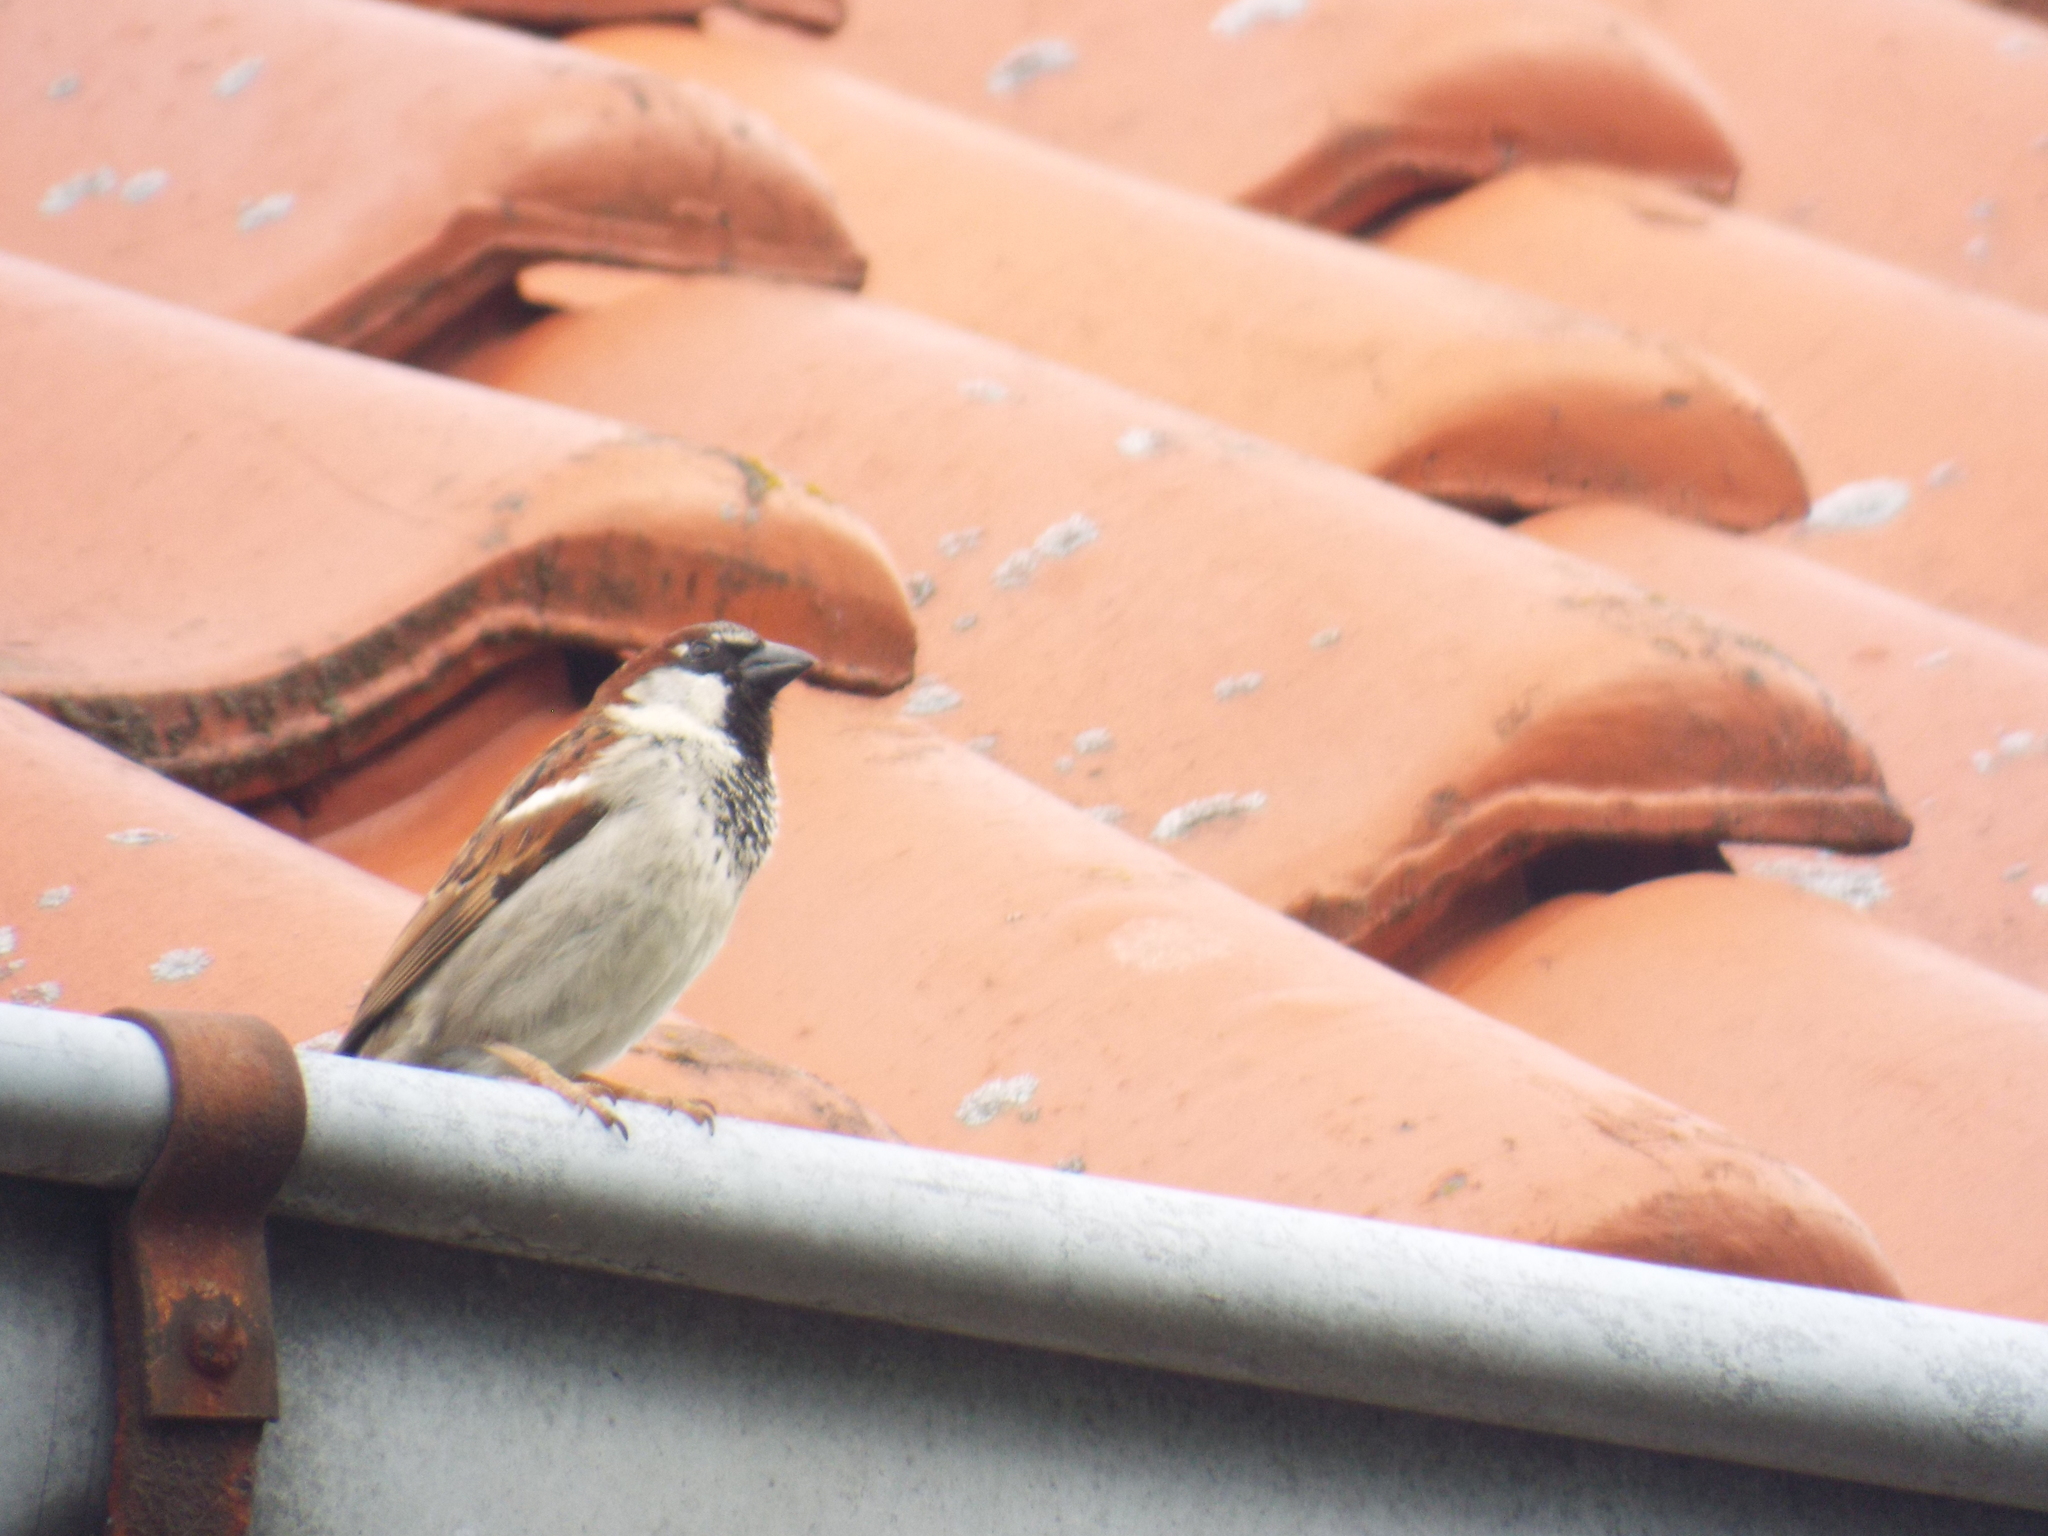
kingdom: Animalia
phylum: Chordata
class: Aves
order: Passeriformes
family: Passeridae
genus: Passer
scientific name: Passer domesticus
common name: House sparrow
